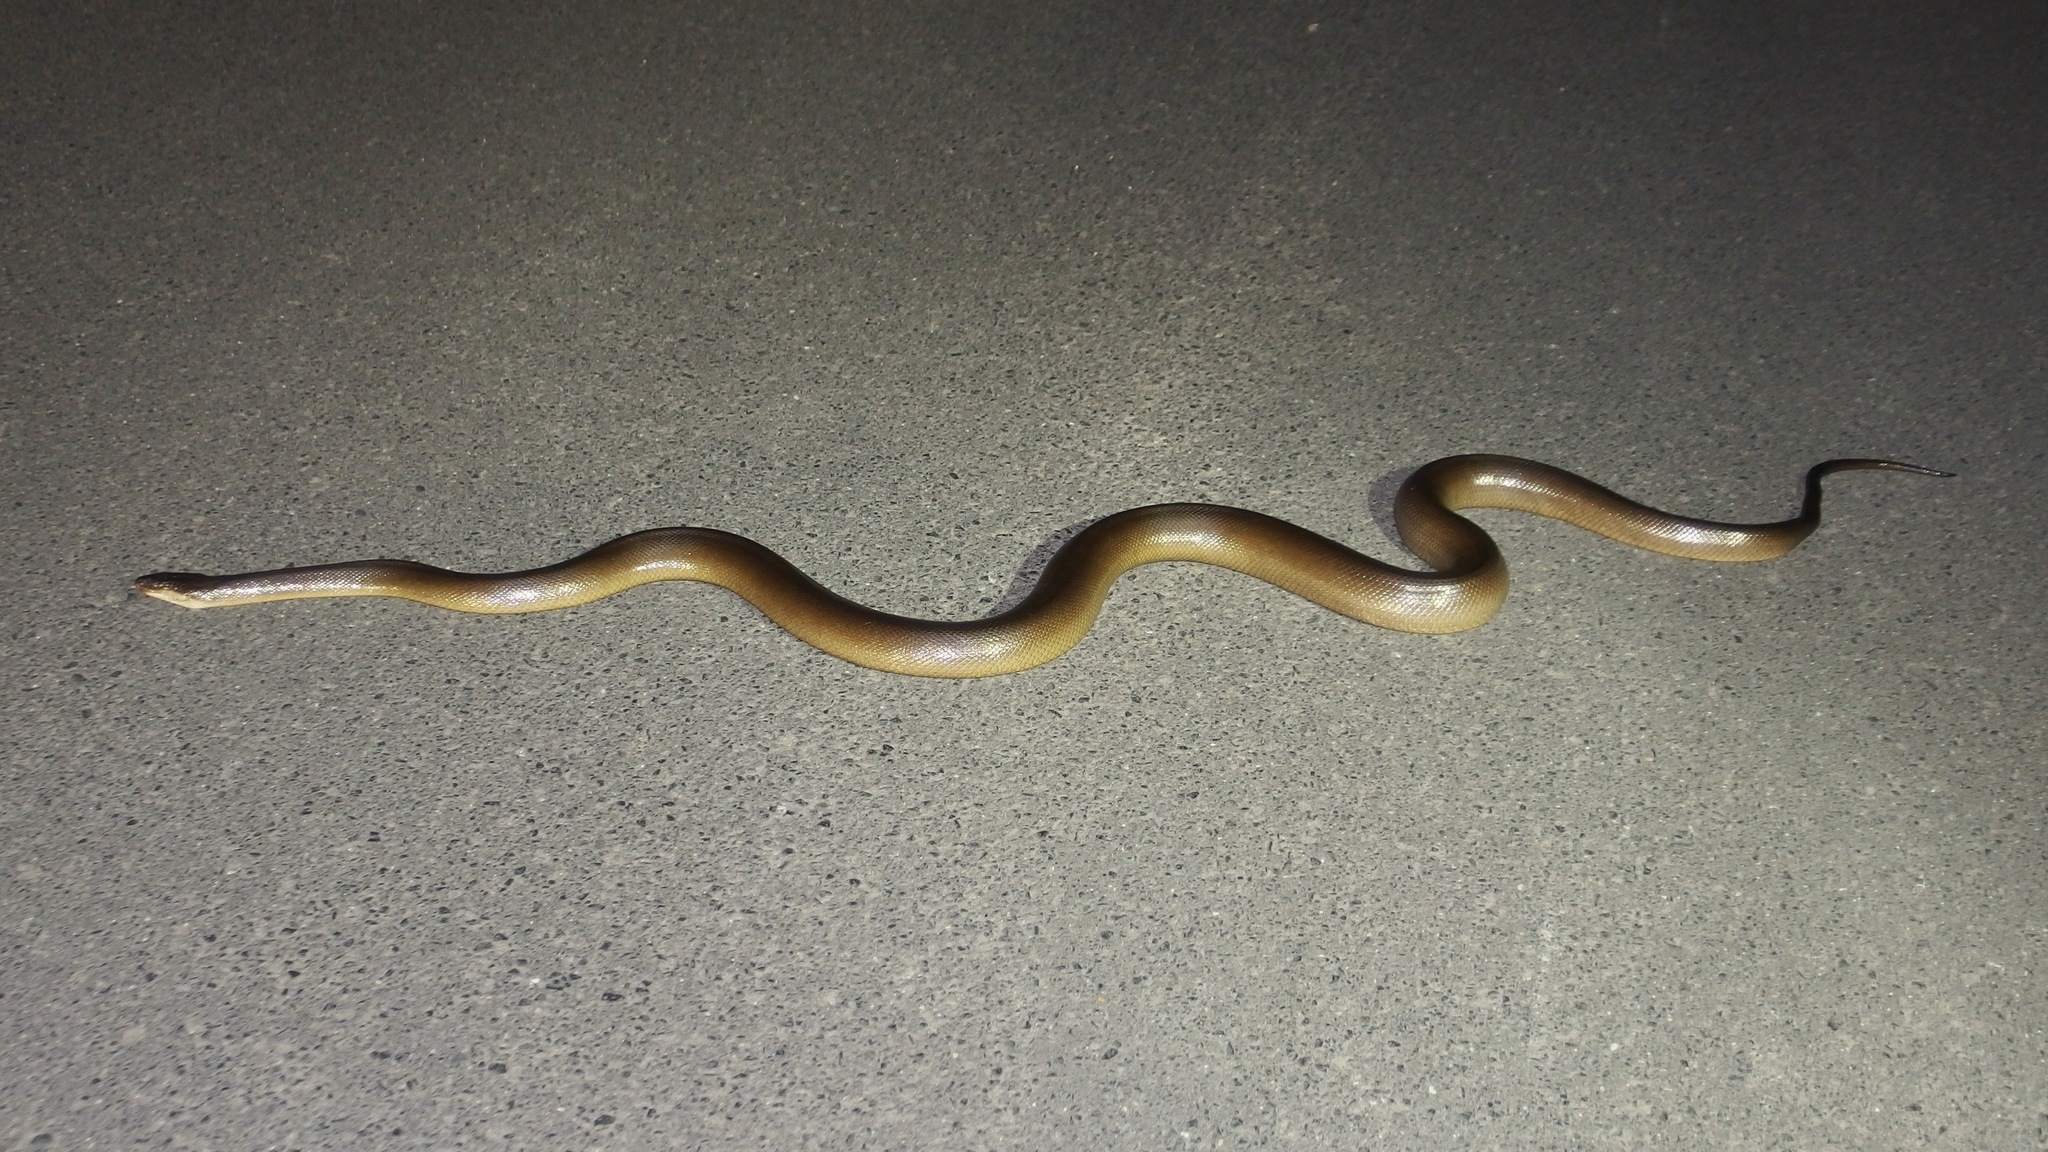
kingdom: Animalia
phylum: Chordata
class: Squamata
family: Pythonidae
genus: Liasis
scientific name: Liasis fuscus
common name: Brown water python
